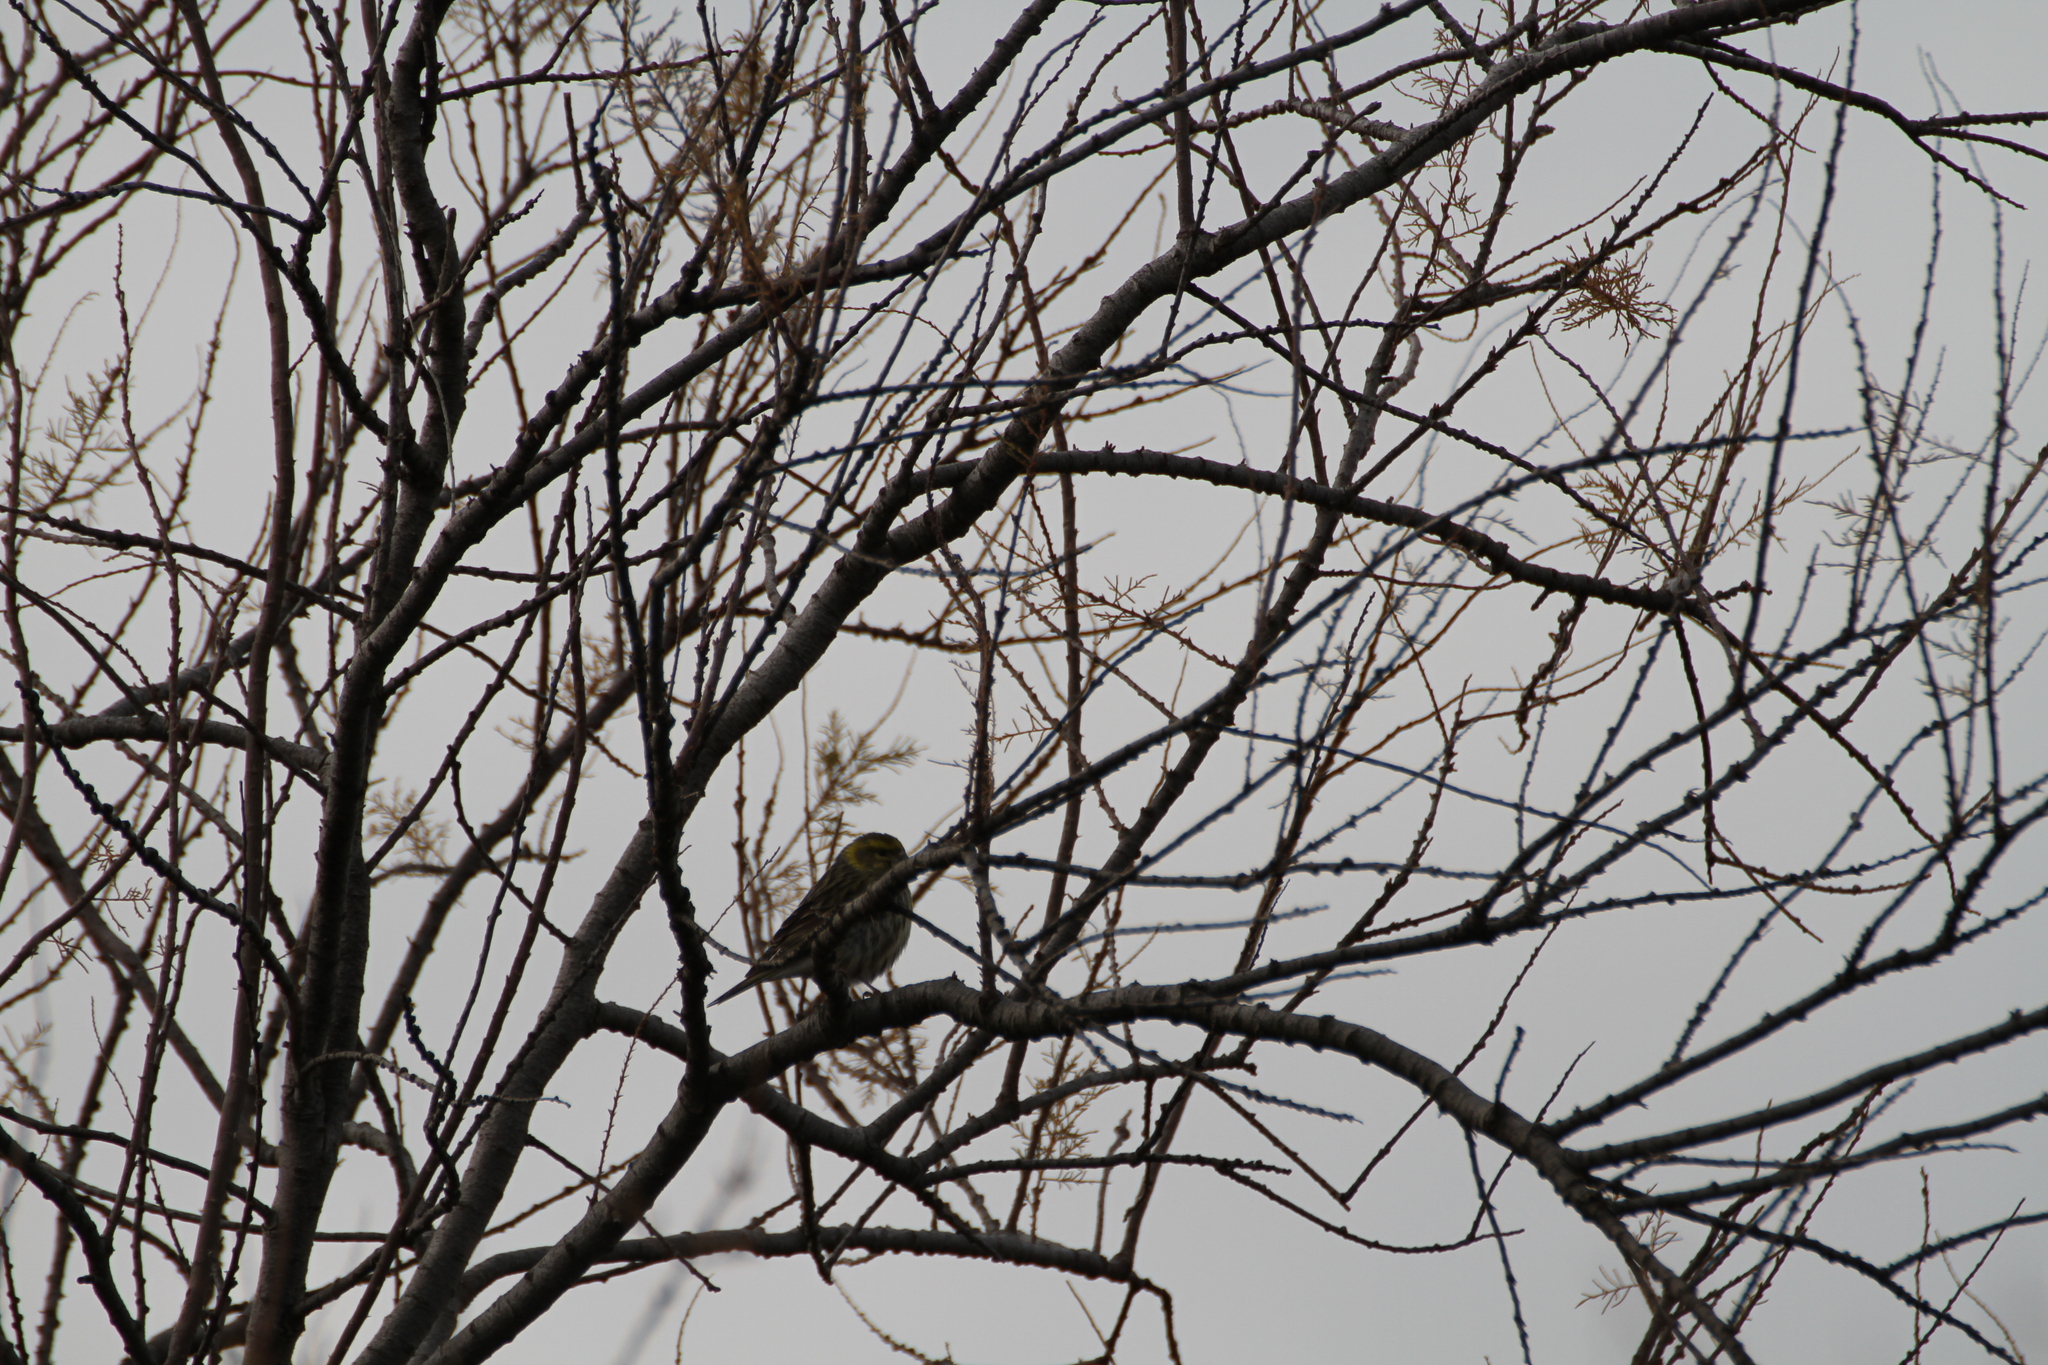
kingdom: Animalia
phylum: Chordata
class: Aves
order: Passeriformes
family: Fringillidae
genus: Serinus
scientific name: Serinus serinus
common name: European serin
